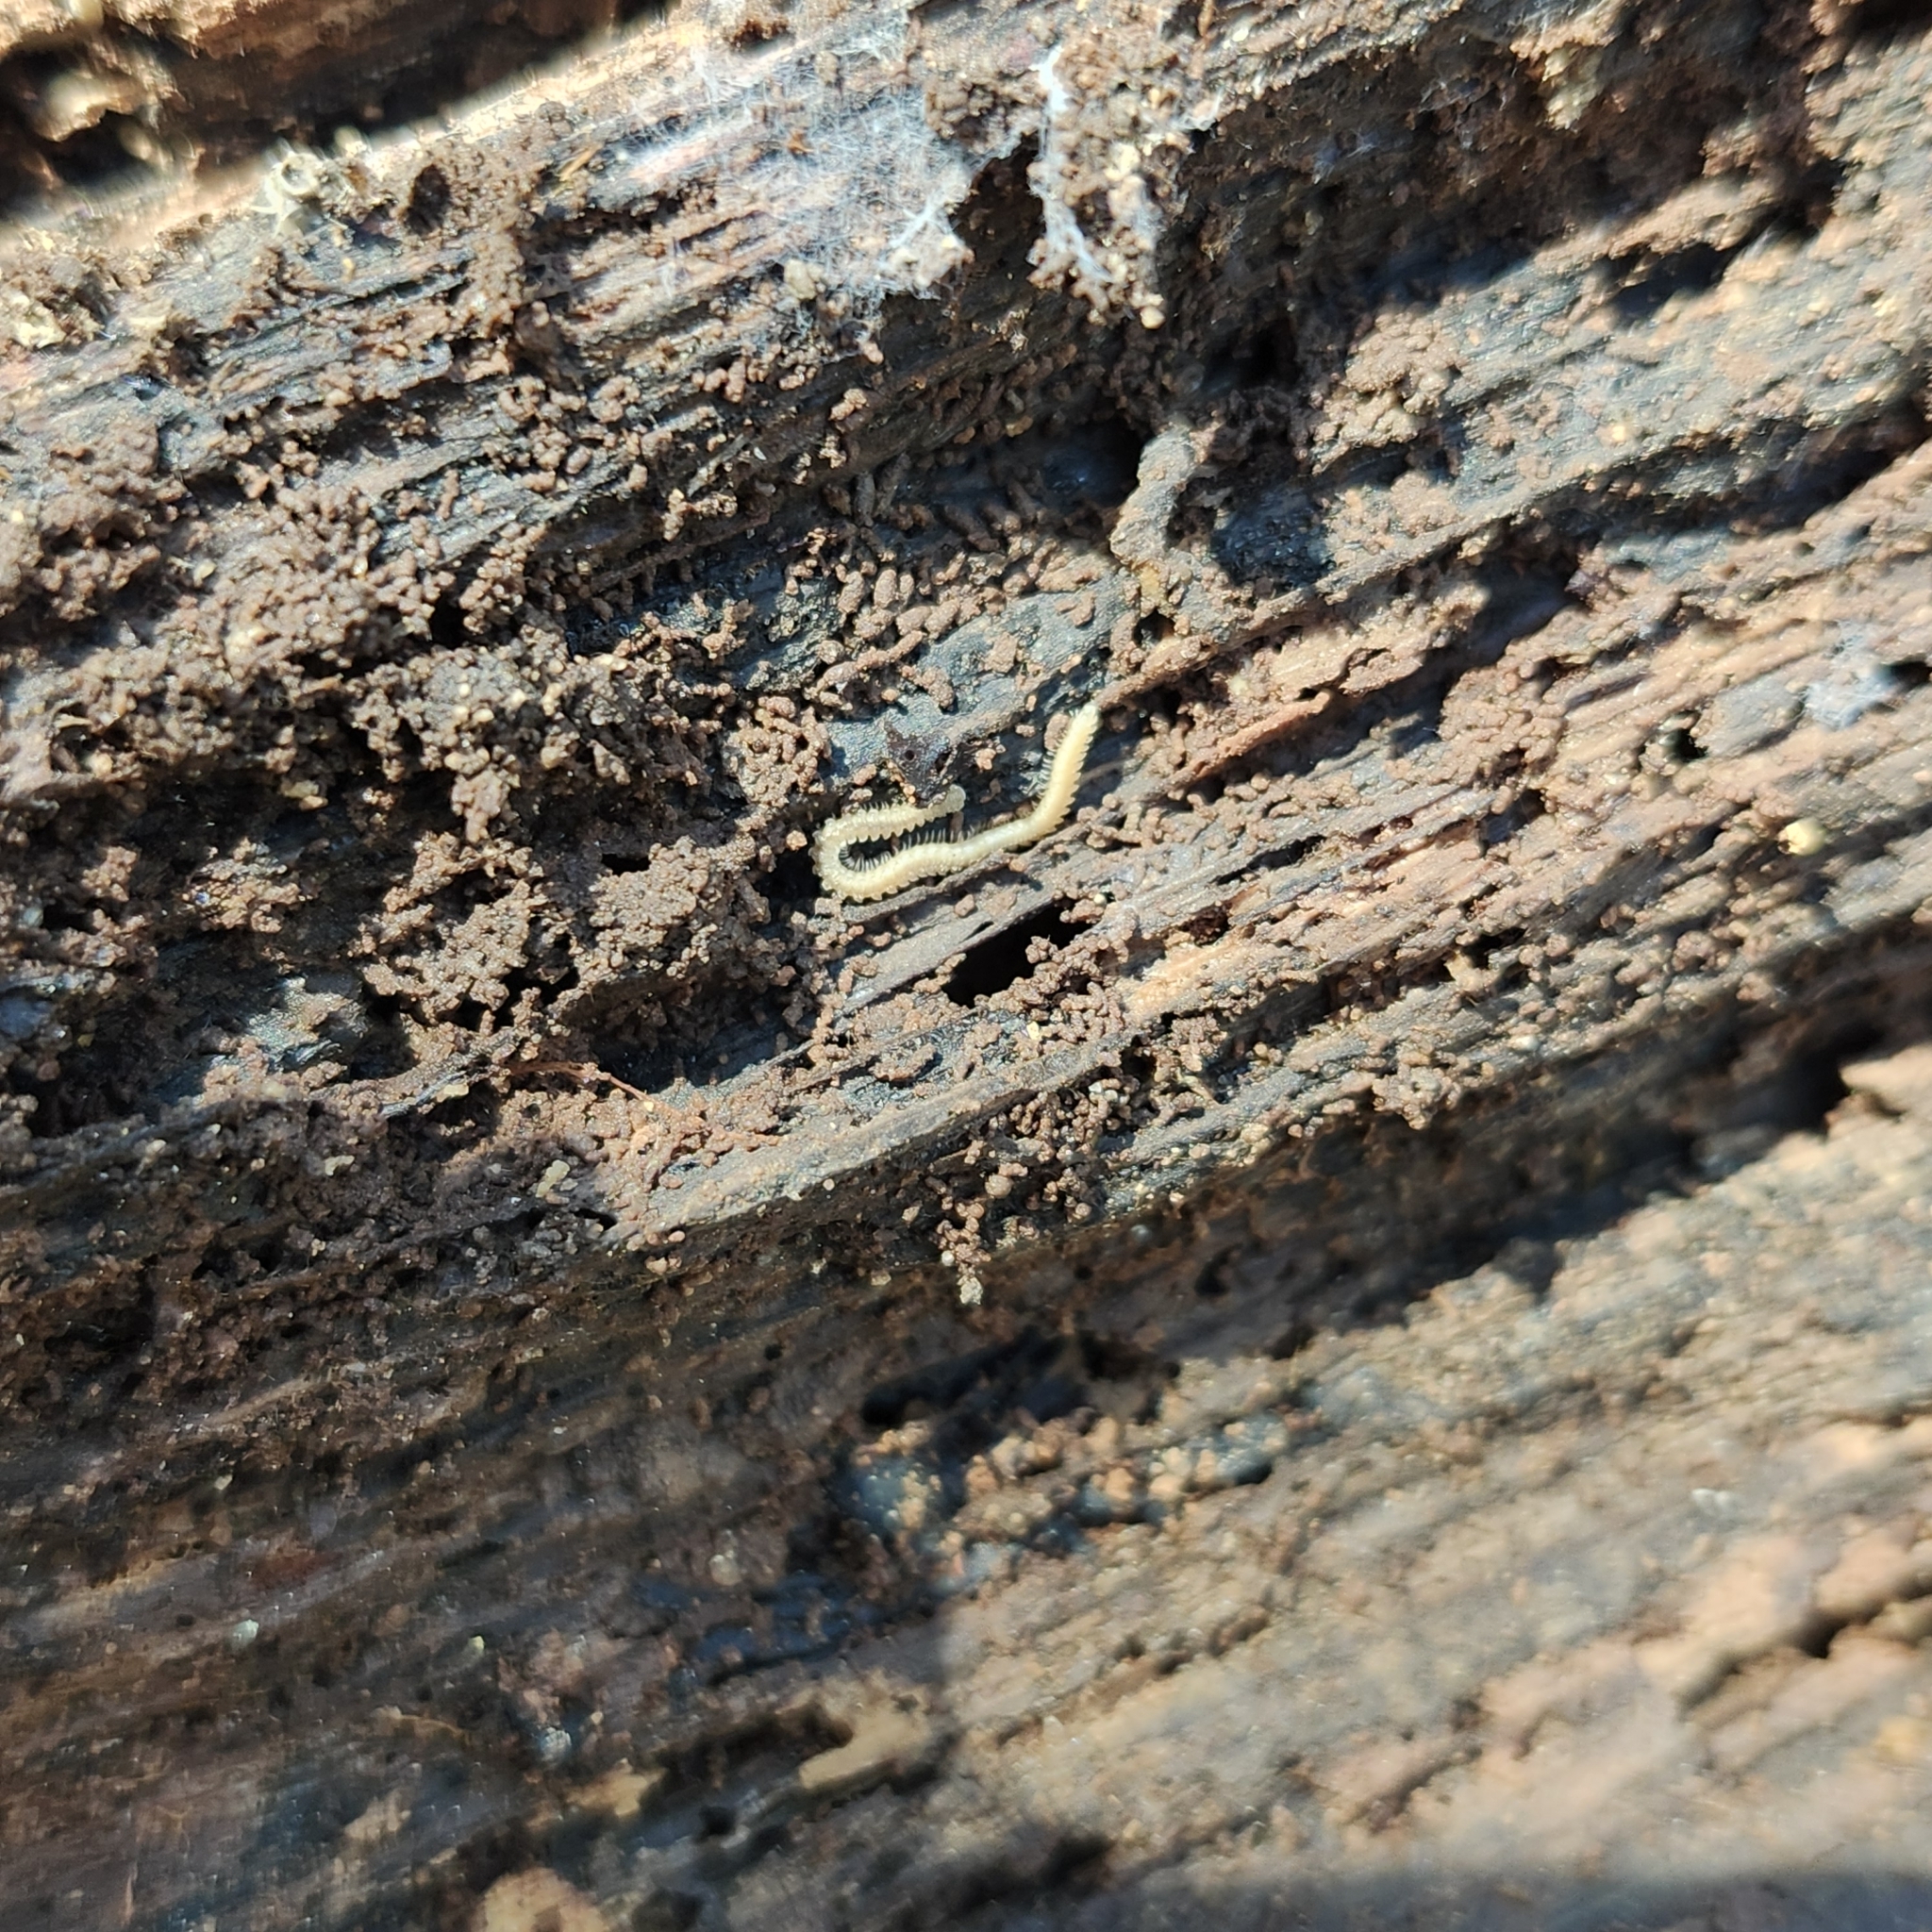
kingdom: Animalia
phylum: Arthropoda
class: Diplopoda
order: Platydesmida
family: Andrognathidae
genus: Andrognathus
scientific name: Andrognathus corticarius
